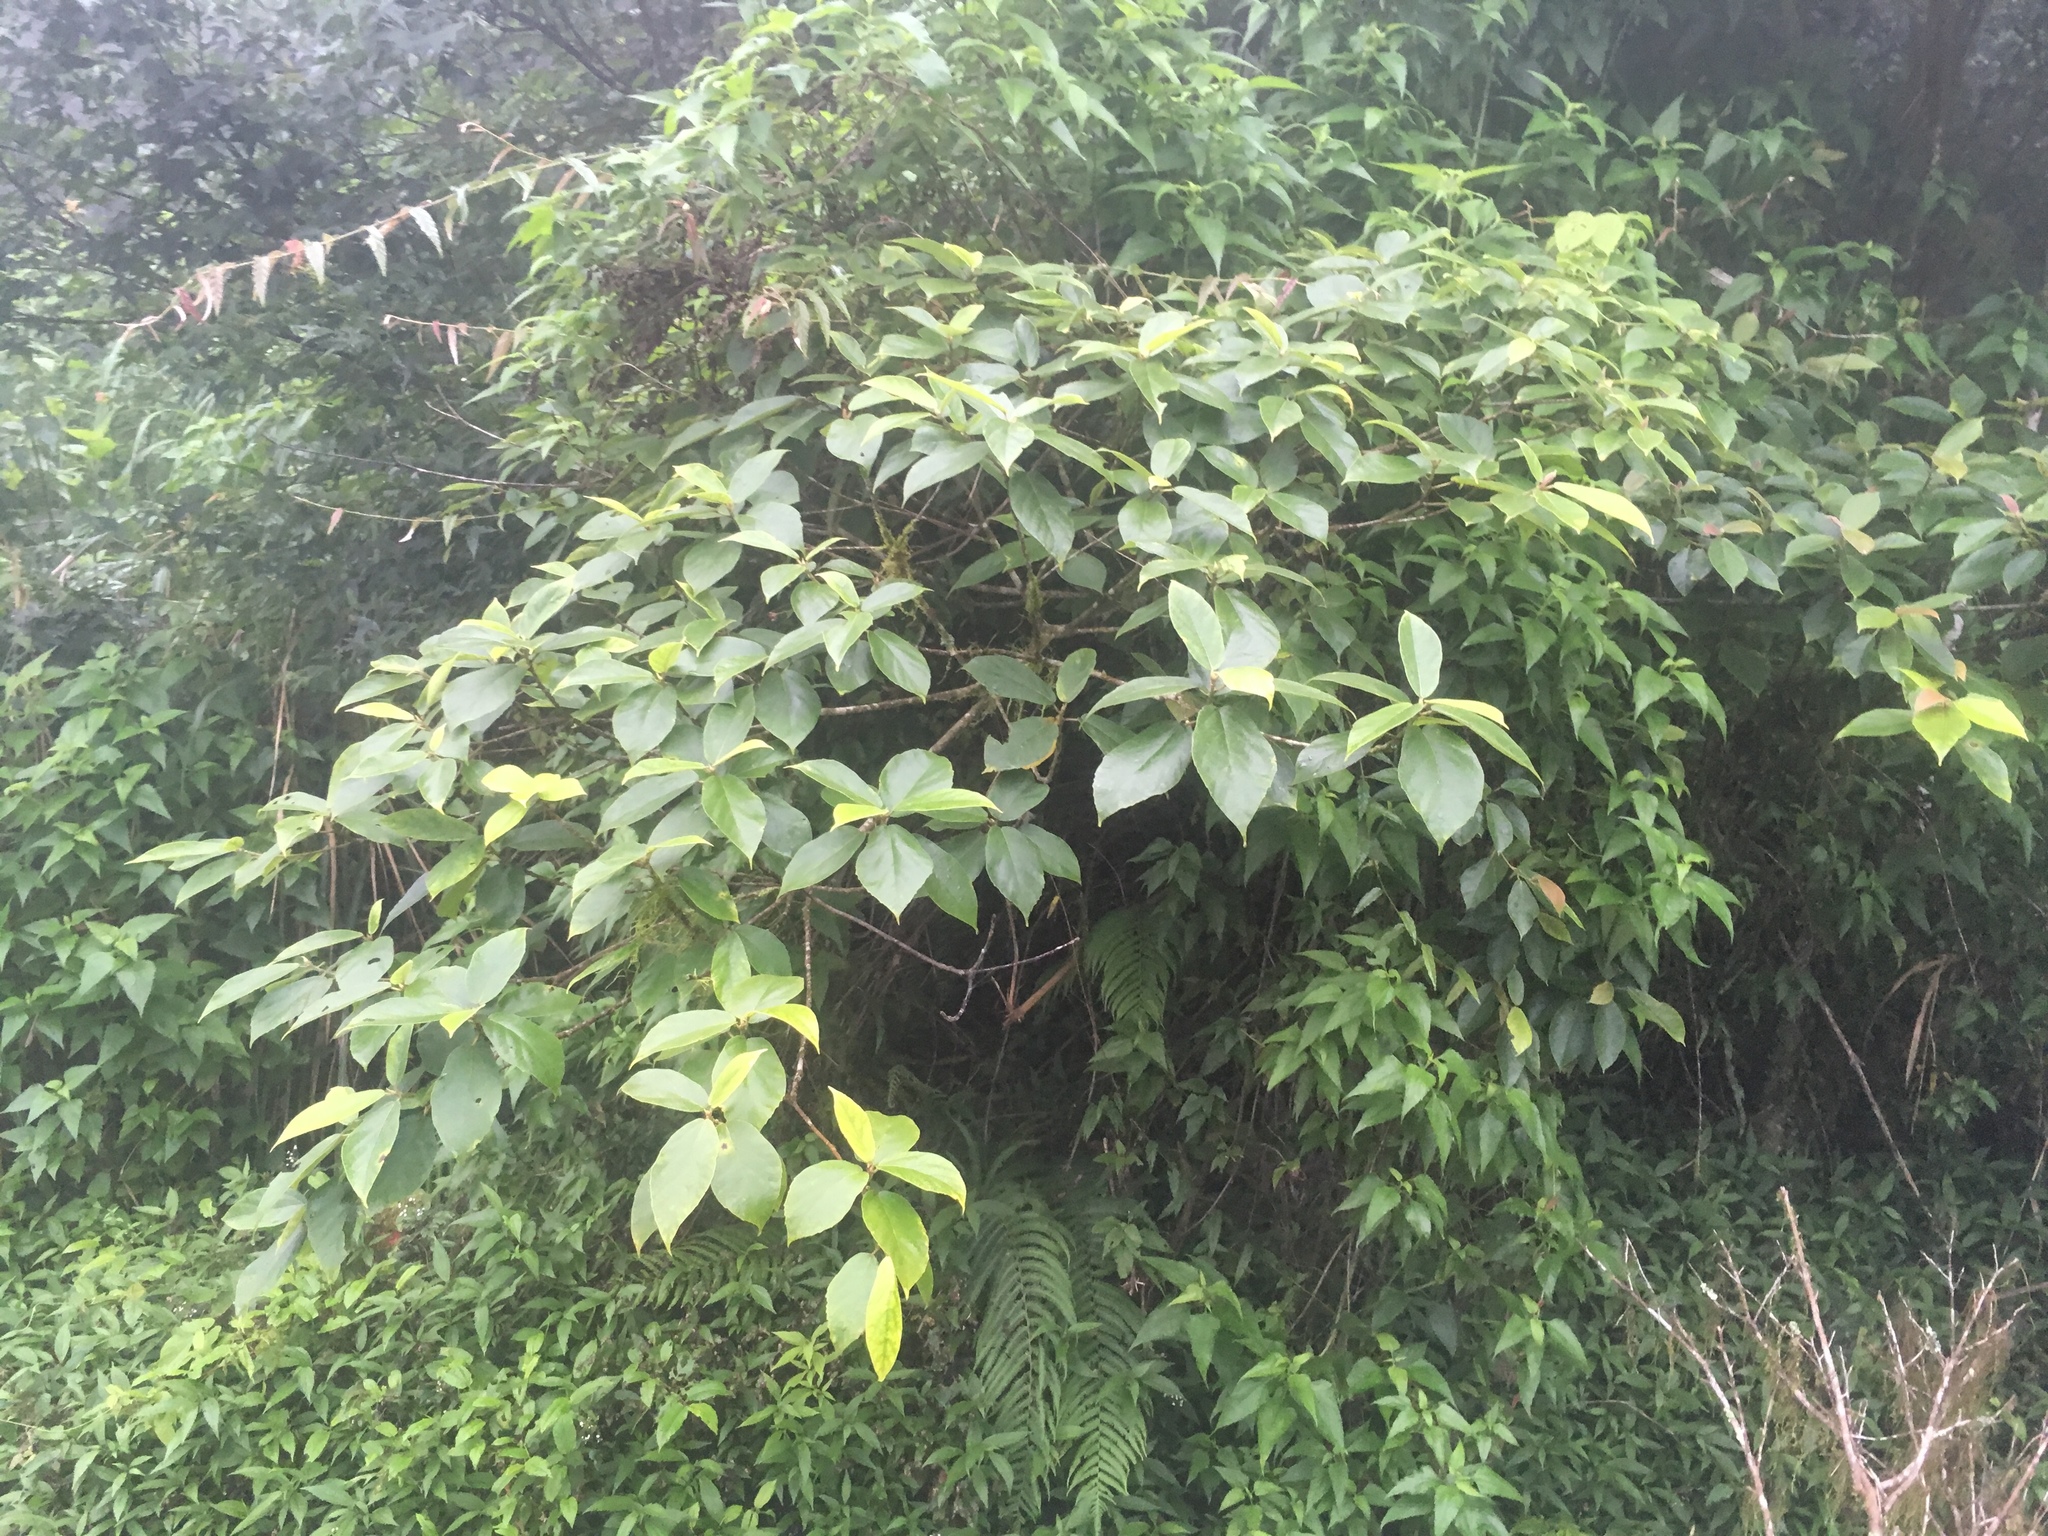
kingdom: Plantae
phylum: Tracheophyta
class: Magnoliopsida
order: Rosales
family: Moraceae
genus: Ficus
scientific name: Ficus erecta
